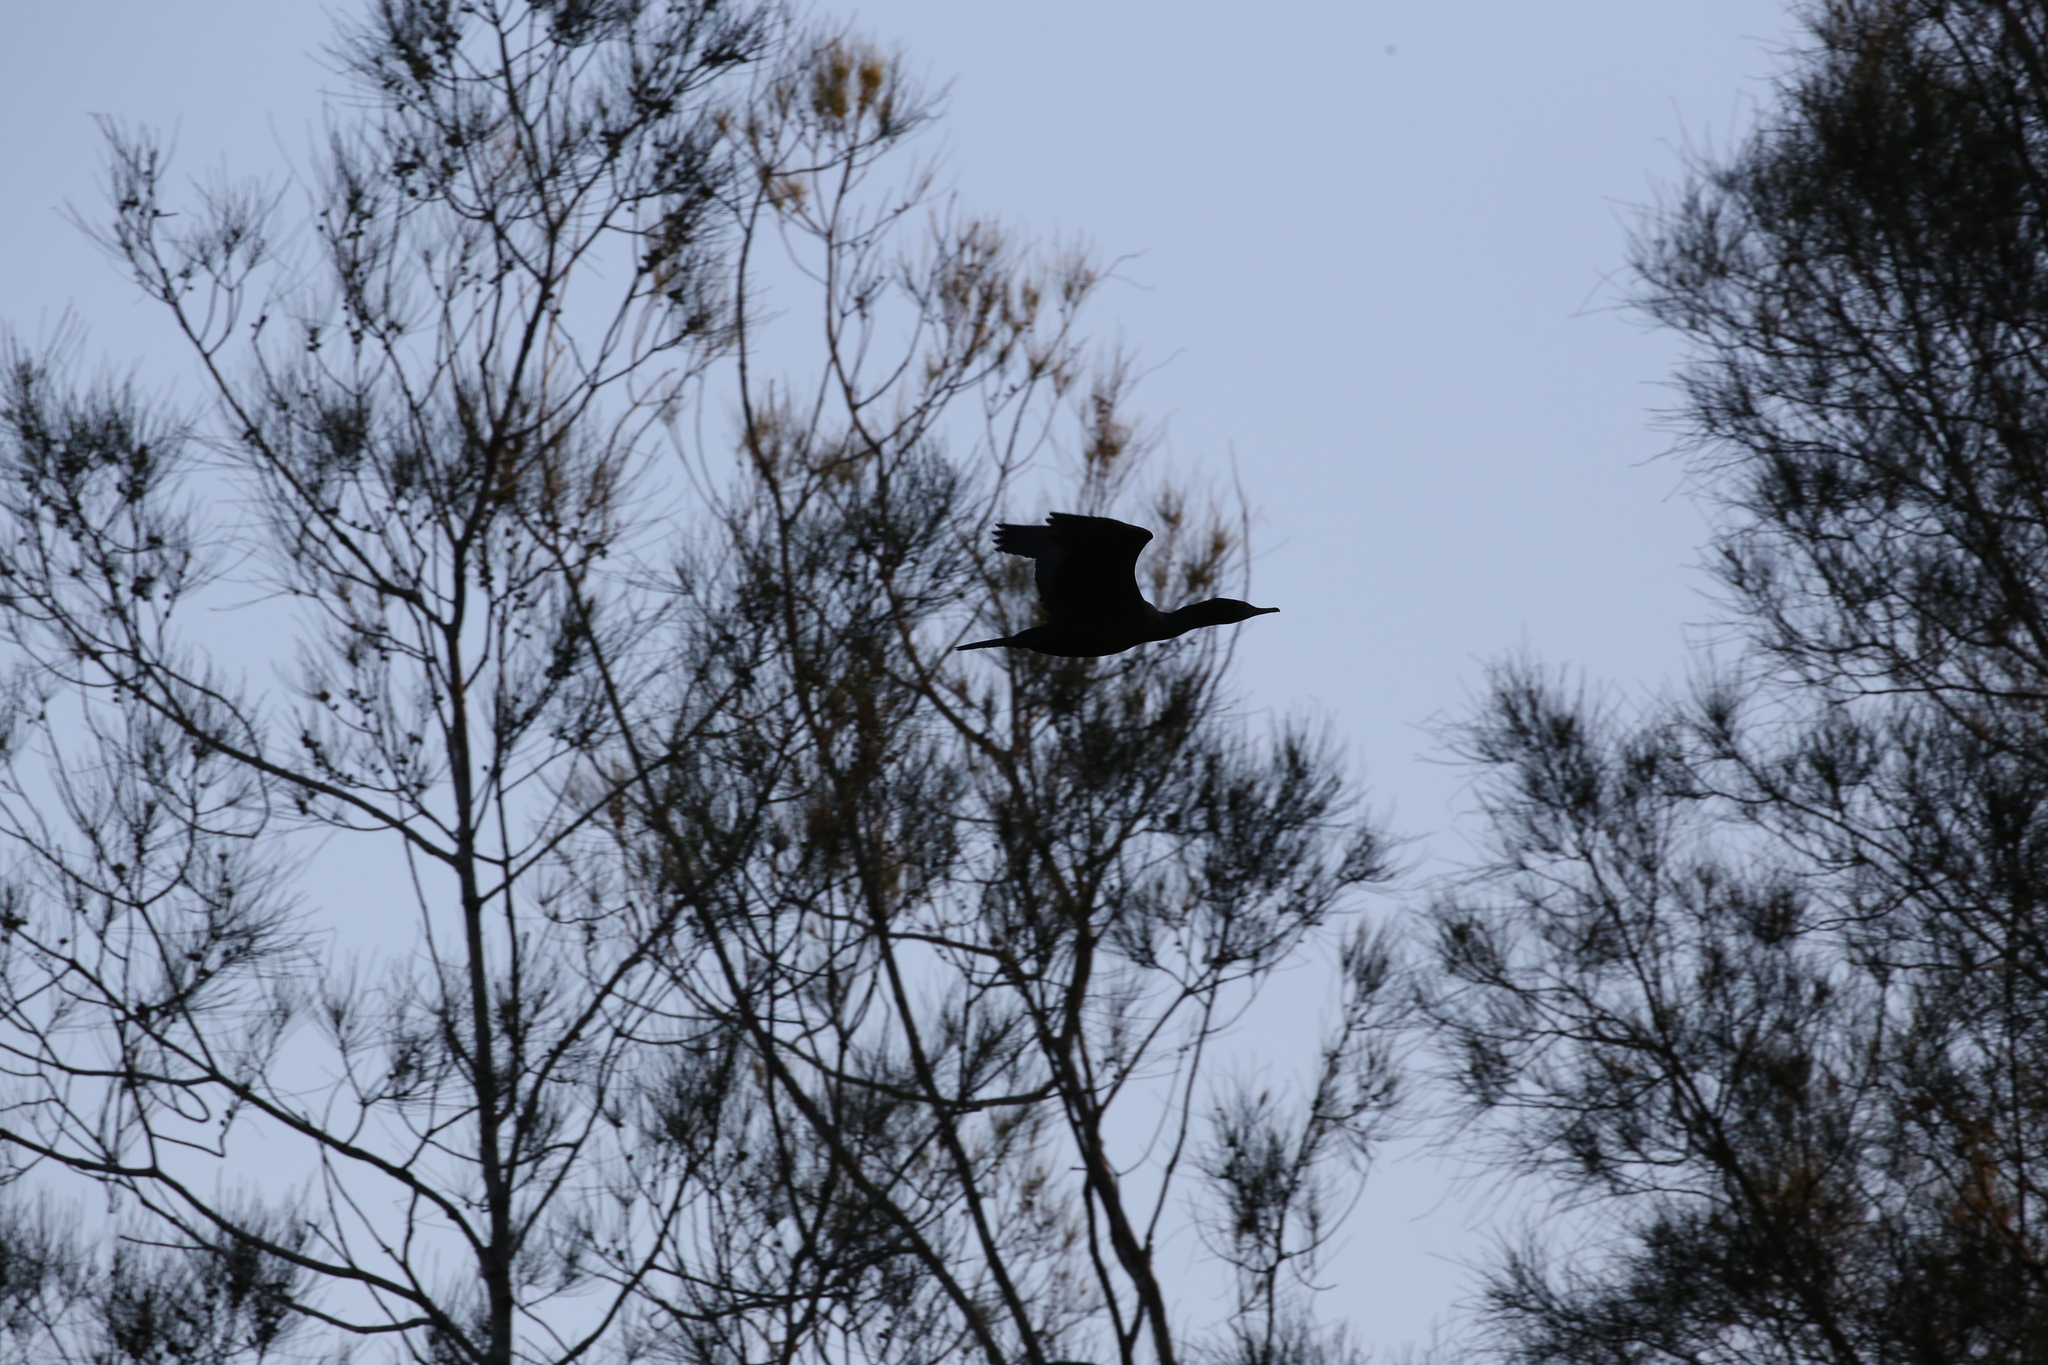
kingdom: Animalia
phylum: Chordata
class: Aves
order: Suliformes
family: Phalacrocoracidae
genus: Phalacrocorax
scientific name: Phalacrocorax sulcirostris
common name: Little black cormorant
